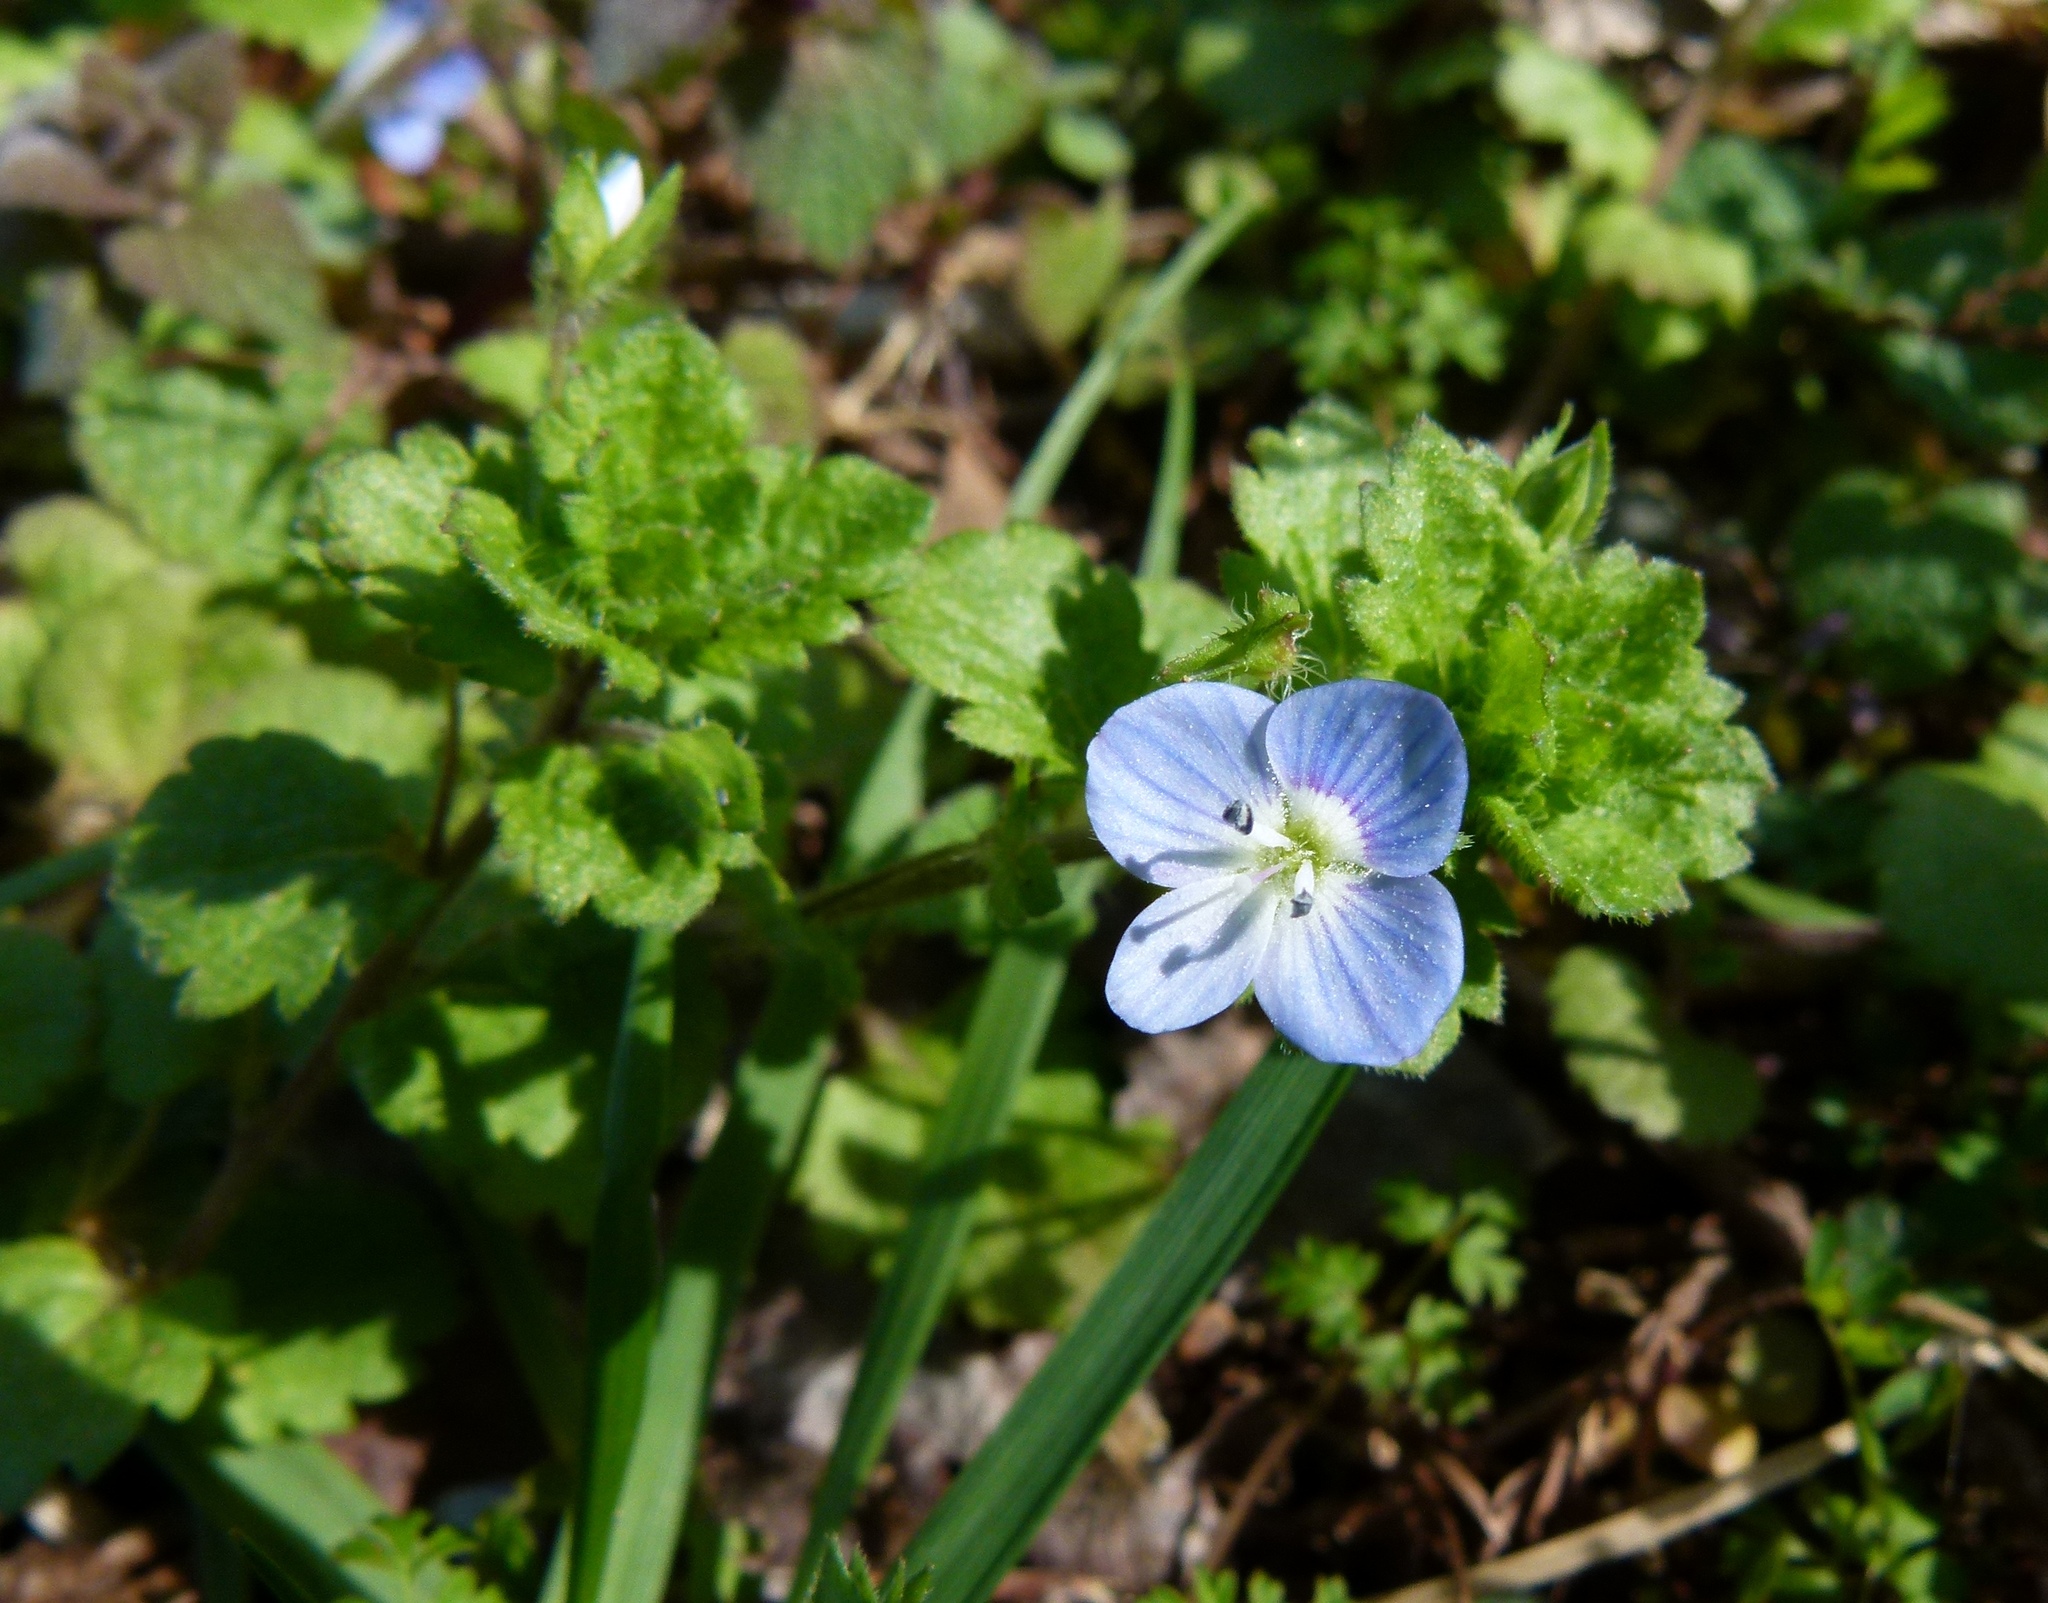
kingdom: Plantae
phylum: Tracheophyta
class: Magnoliopsida
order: Lamiales
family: Plantaginaceae
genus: Veronica
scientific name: Veronica persica
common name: Common field-speedwell
